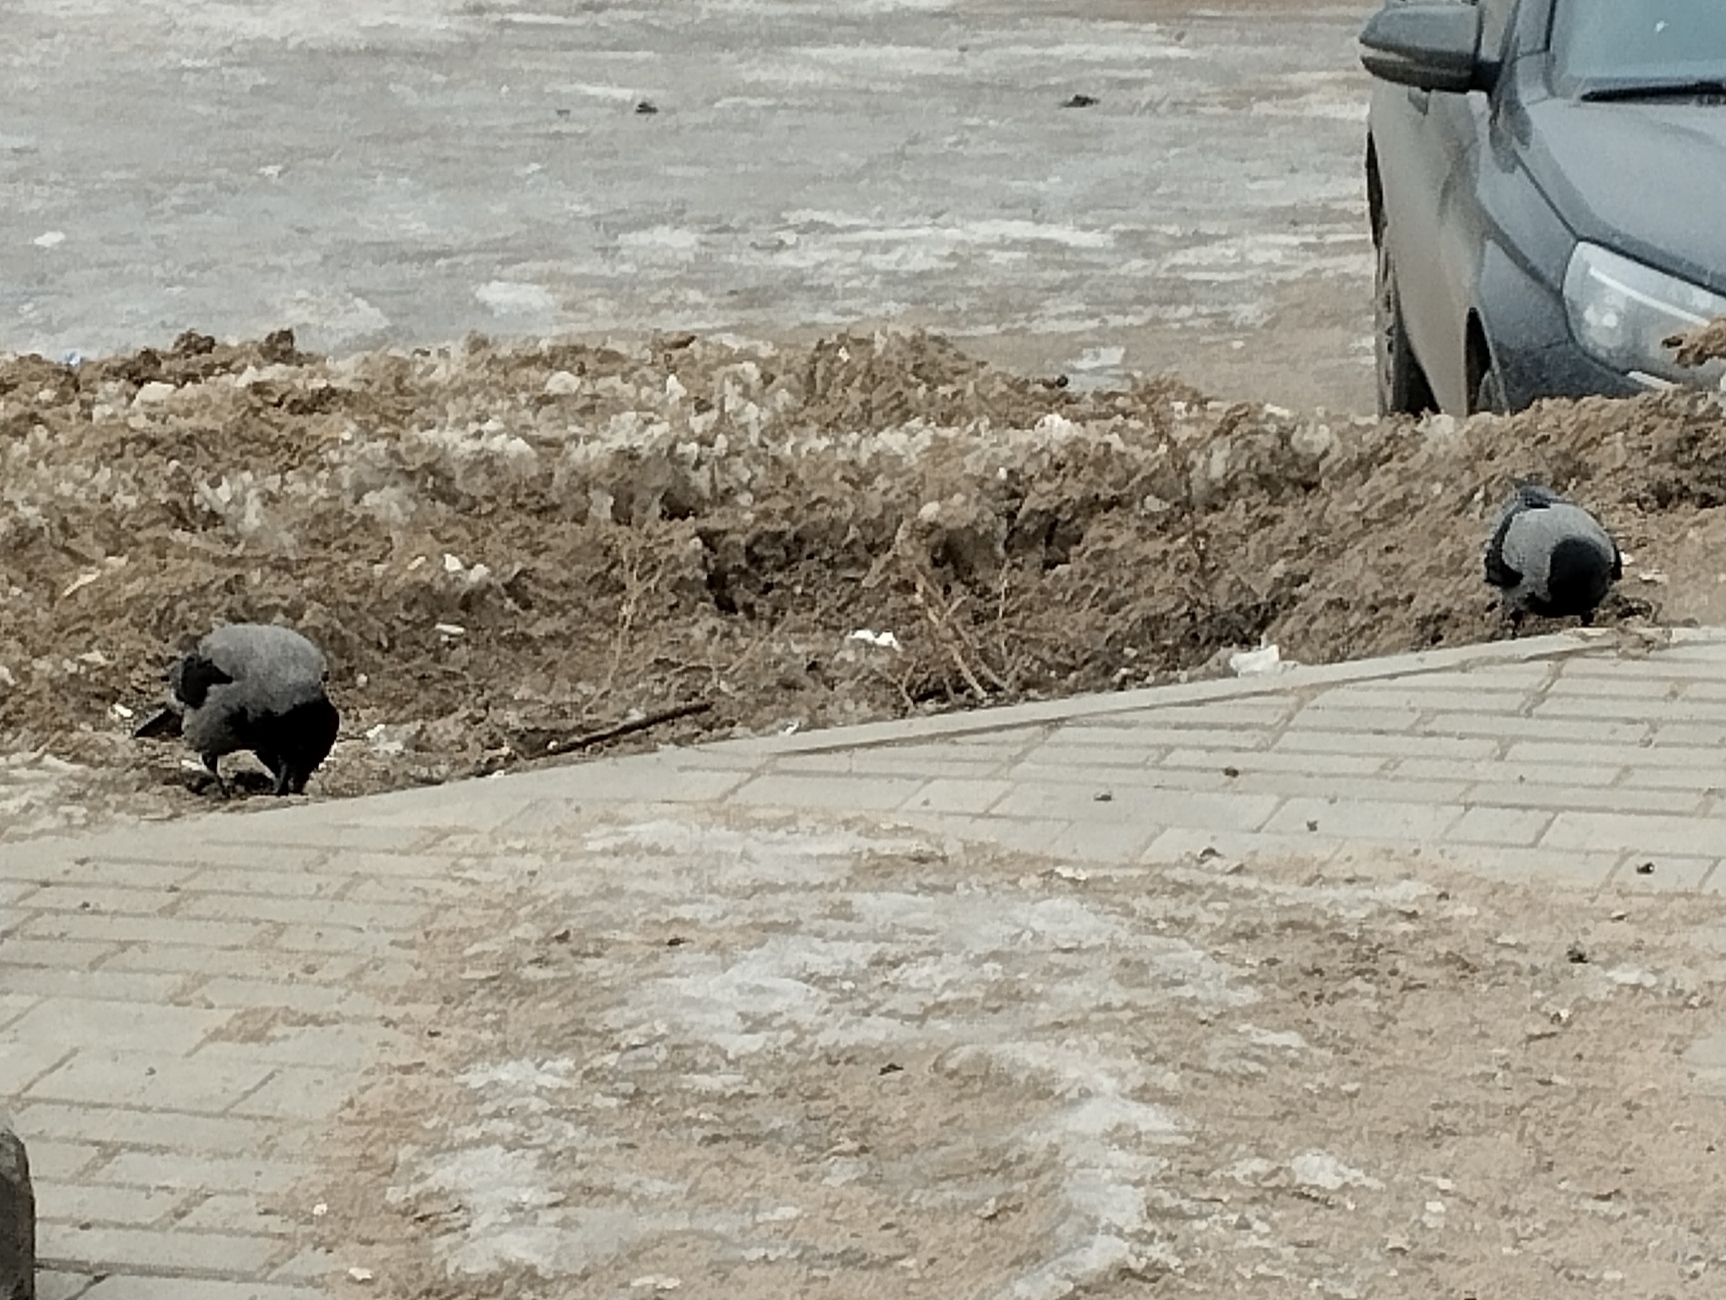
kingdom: Animalia
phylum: Chordata
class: Aves
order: Passeriformes
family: Corvidae
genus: Corvus
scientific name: Corvus cornix
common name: Hooded crow
